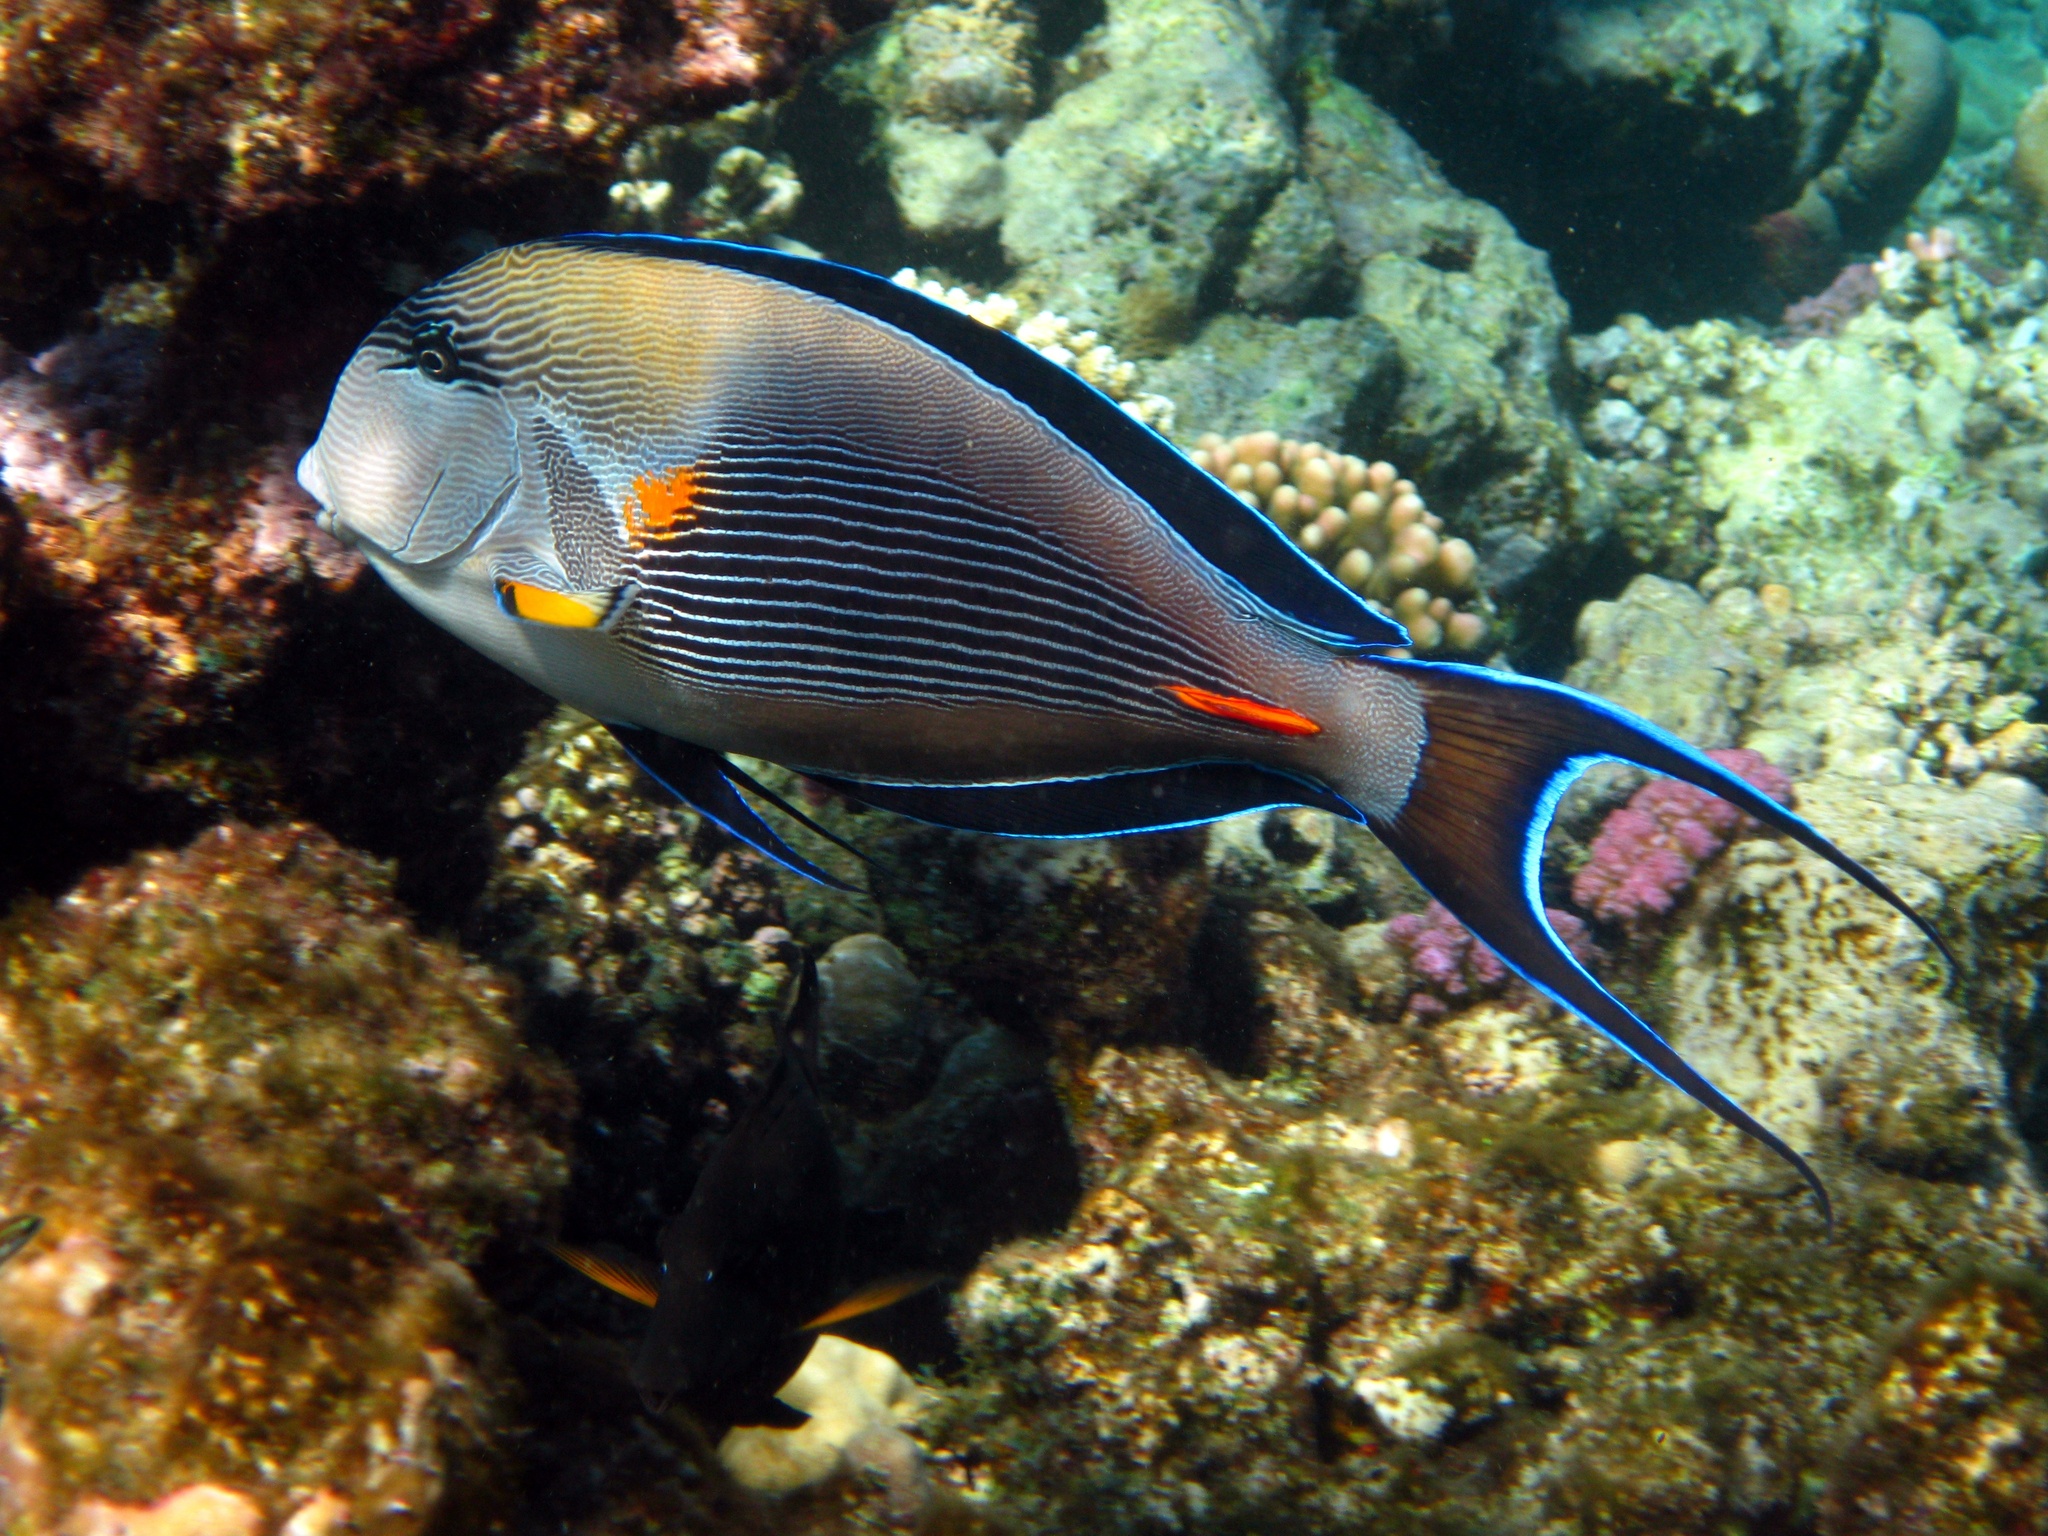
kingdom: Animalia
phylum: Chordata
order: Perciformes
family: Acanthuridae
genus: Acanthurus
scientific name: Acanthurus sohal
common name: Red sea surgeonfish
